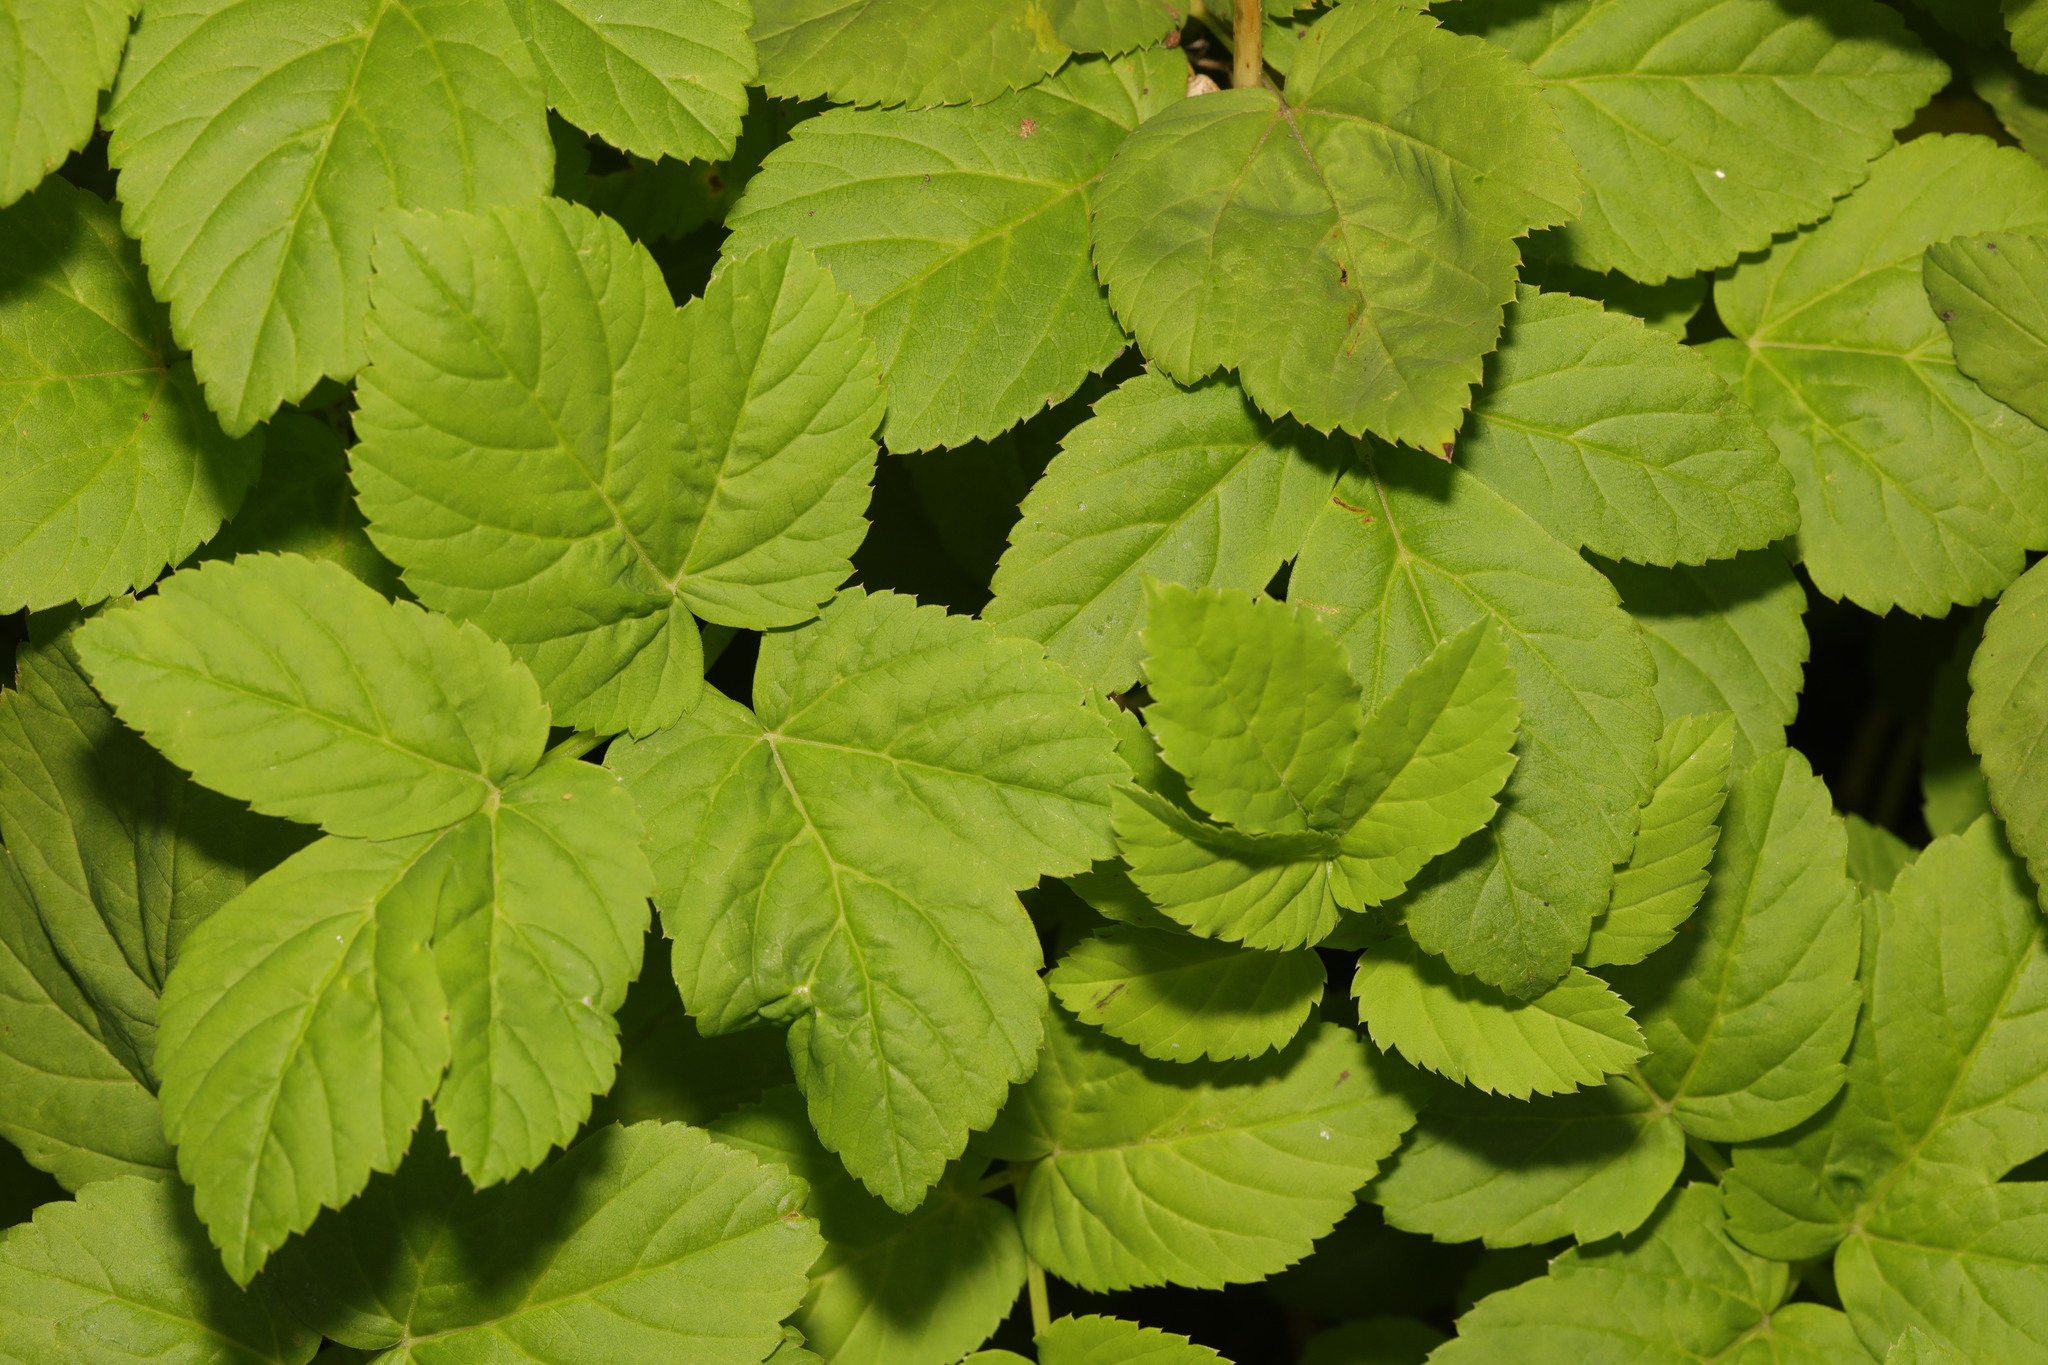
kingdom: Plantae
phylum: Tracheophyta
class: Magnoliopsida
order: Apiales
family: Apiaceae
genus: Aegopodium
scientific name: Aegopodium podagraria
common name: Ground-elder
